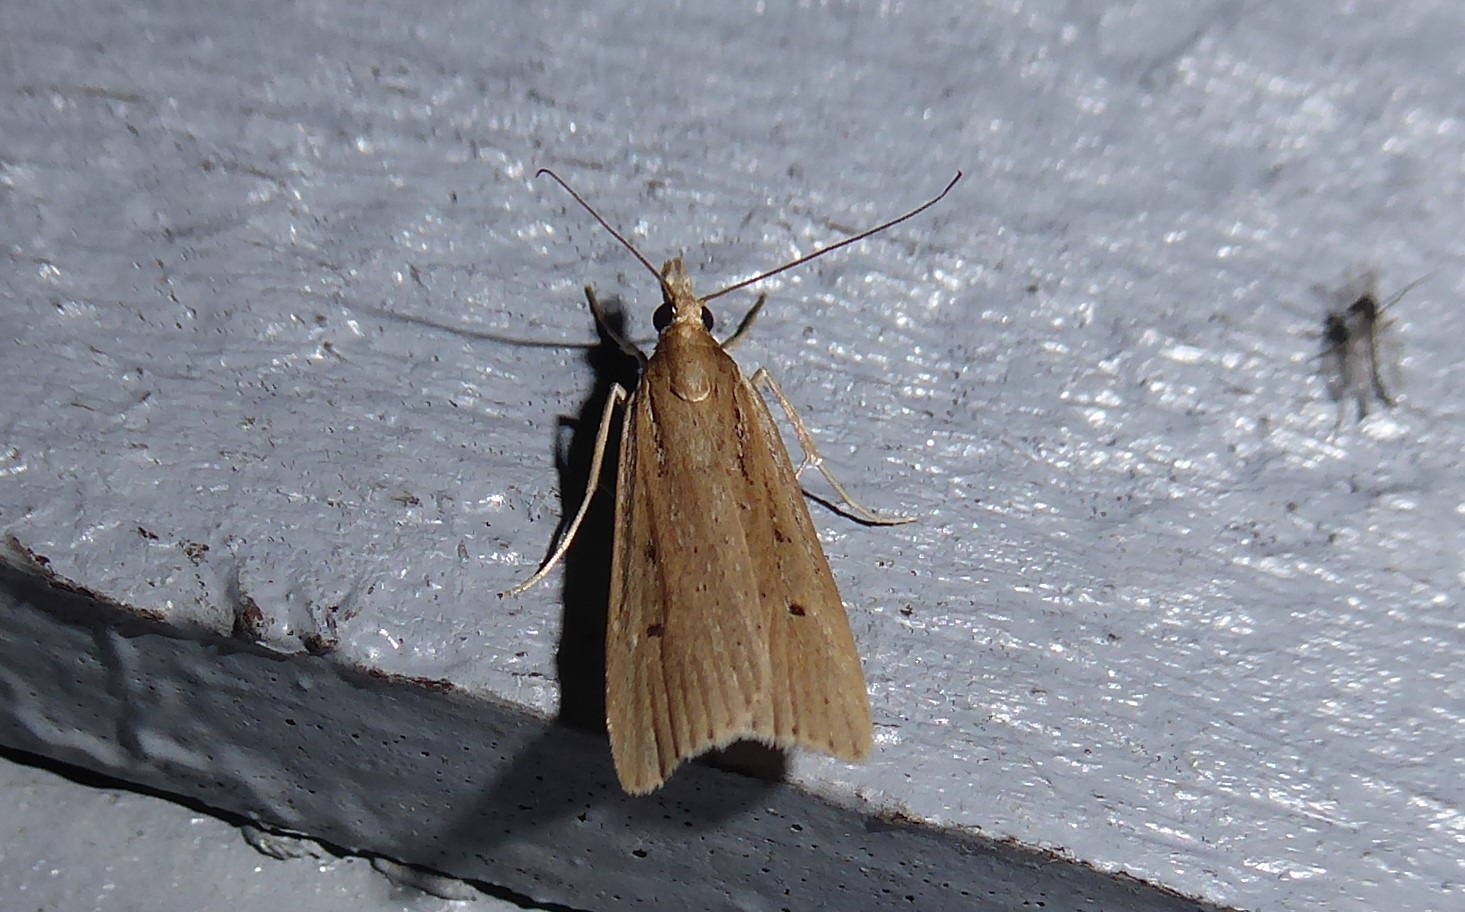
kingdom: Animalia
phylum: Arthropoda
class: Insecta
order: Lepidoptera
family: Crambidae
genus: Eudonia
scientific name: Eudonia sabulosella
